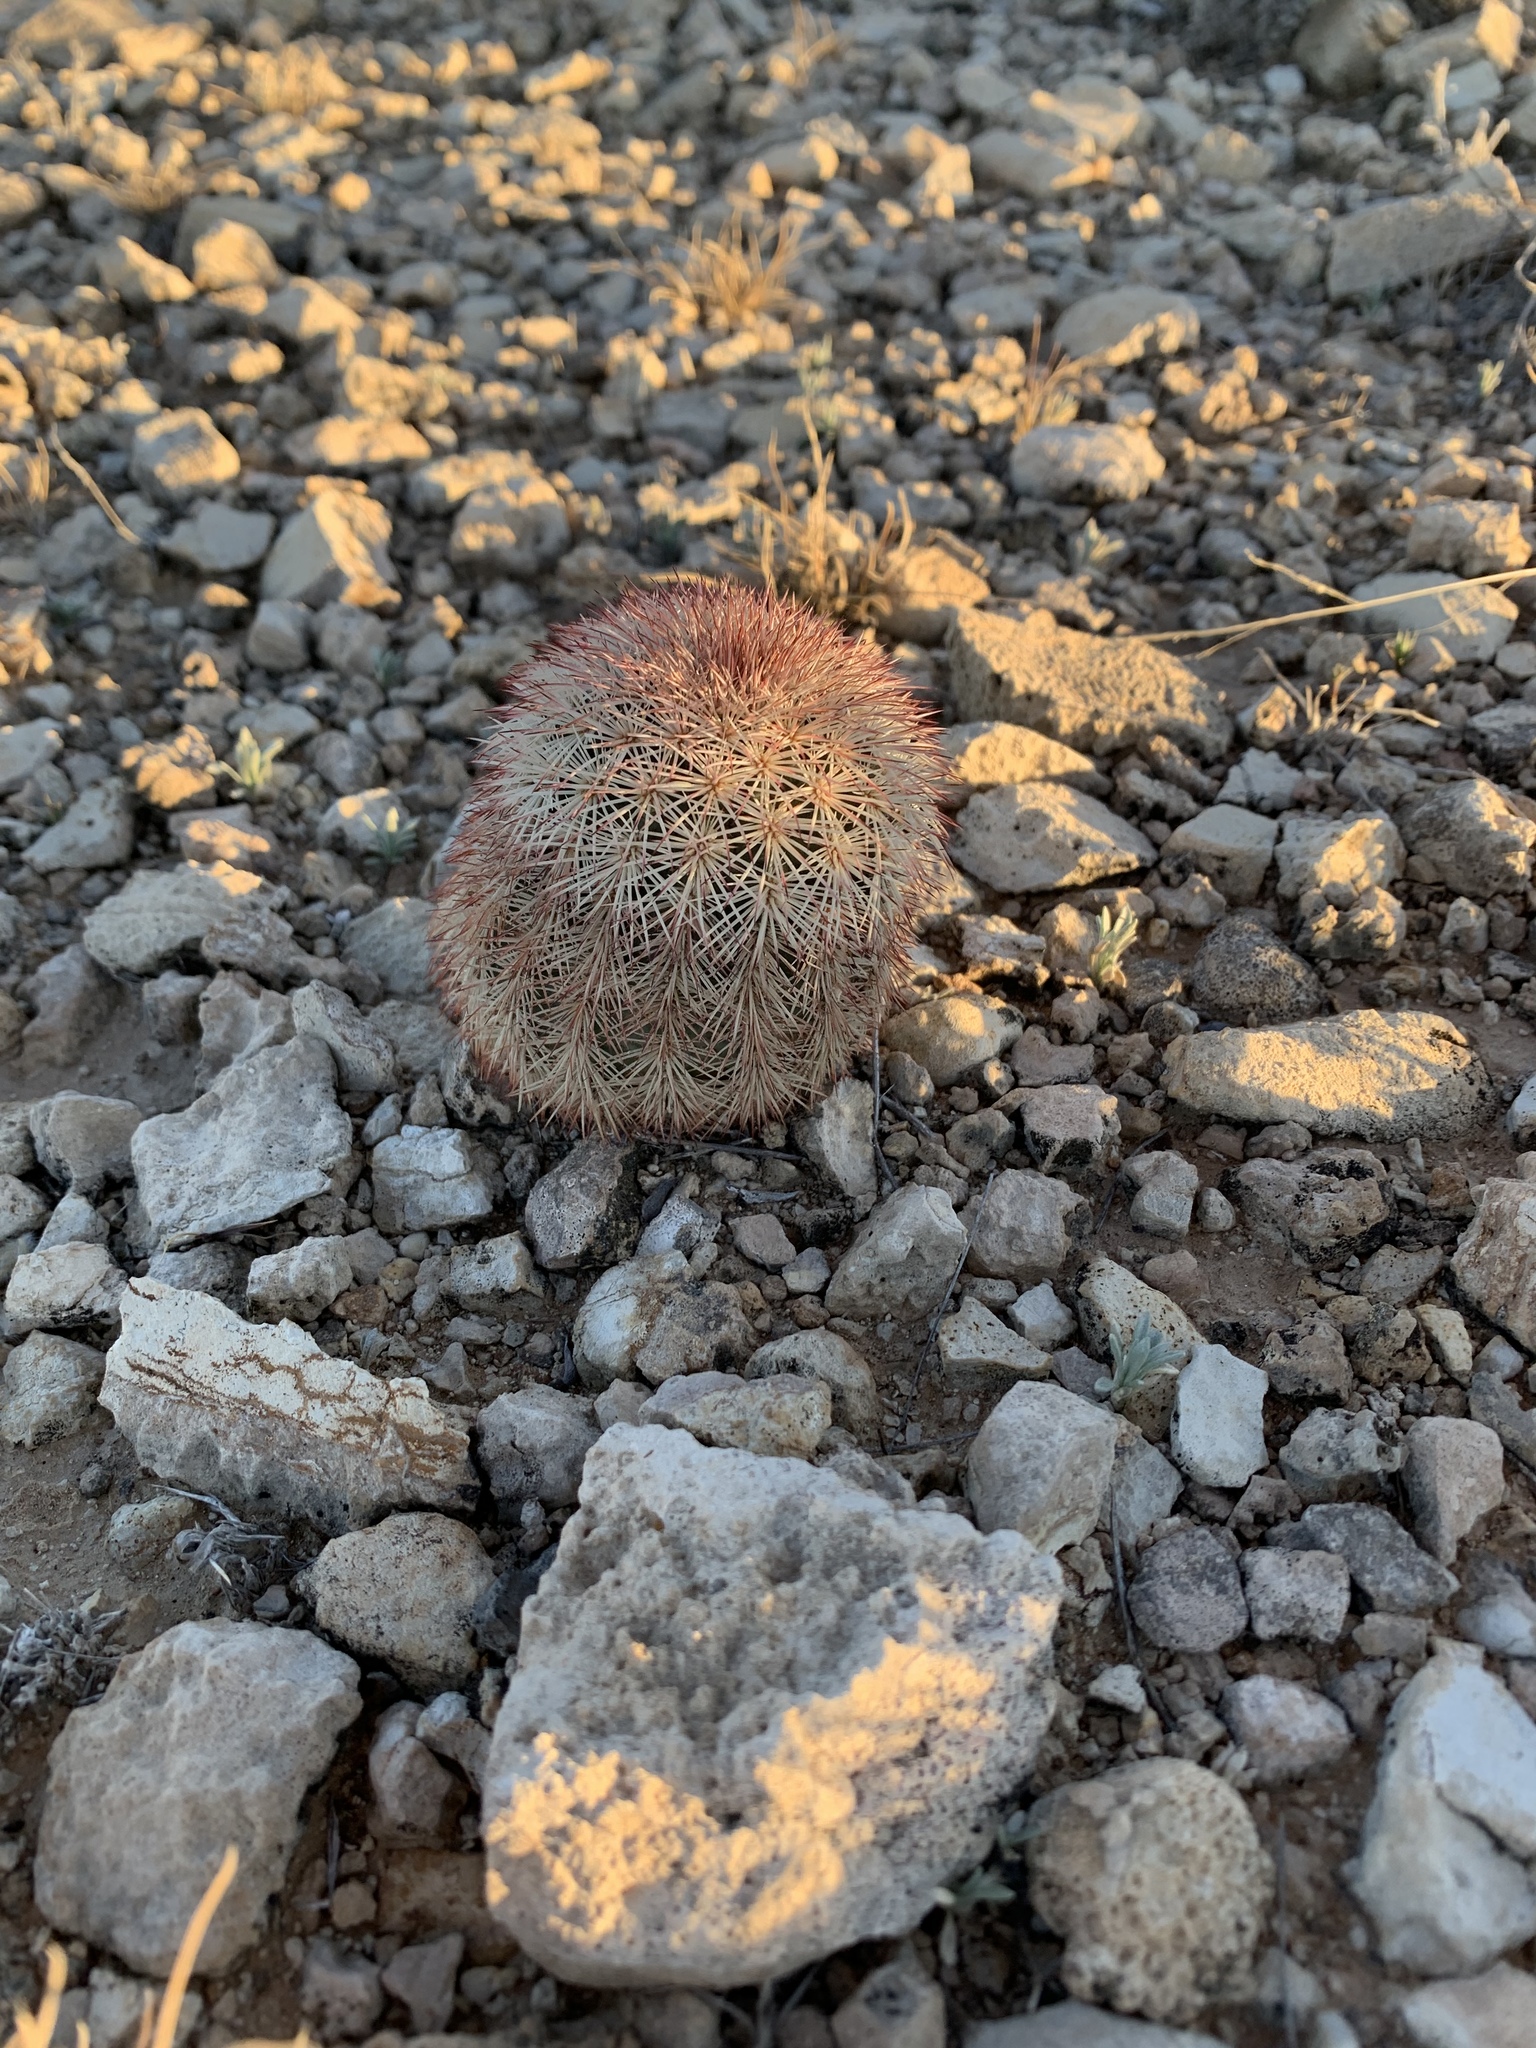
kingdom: Plantae
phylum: Tracheophyta
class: Magnoliopsida
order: Caryophyllales
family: Cactaceae
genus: Echinocereus
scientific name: Echinocereus dasyacanthus
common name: Spiny hedgehog cactus
